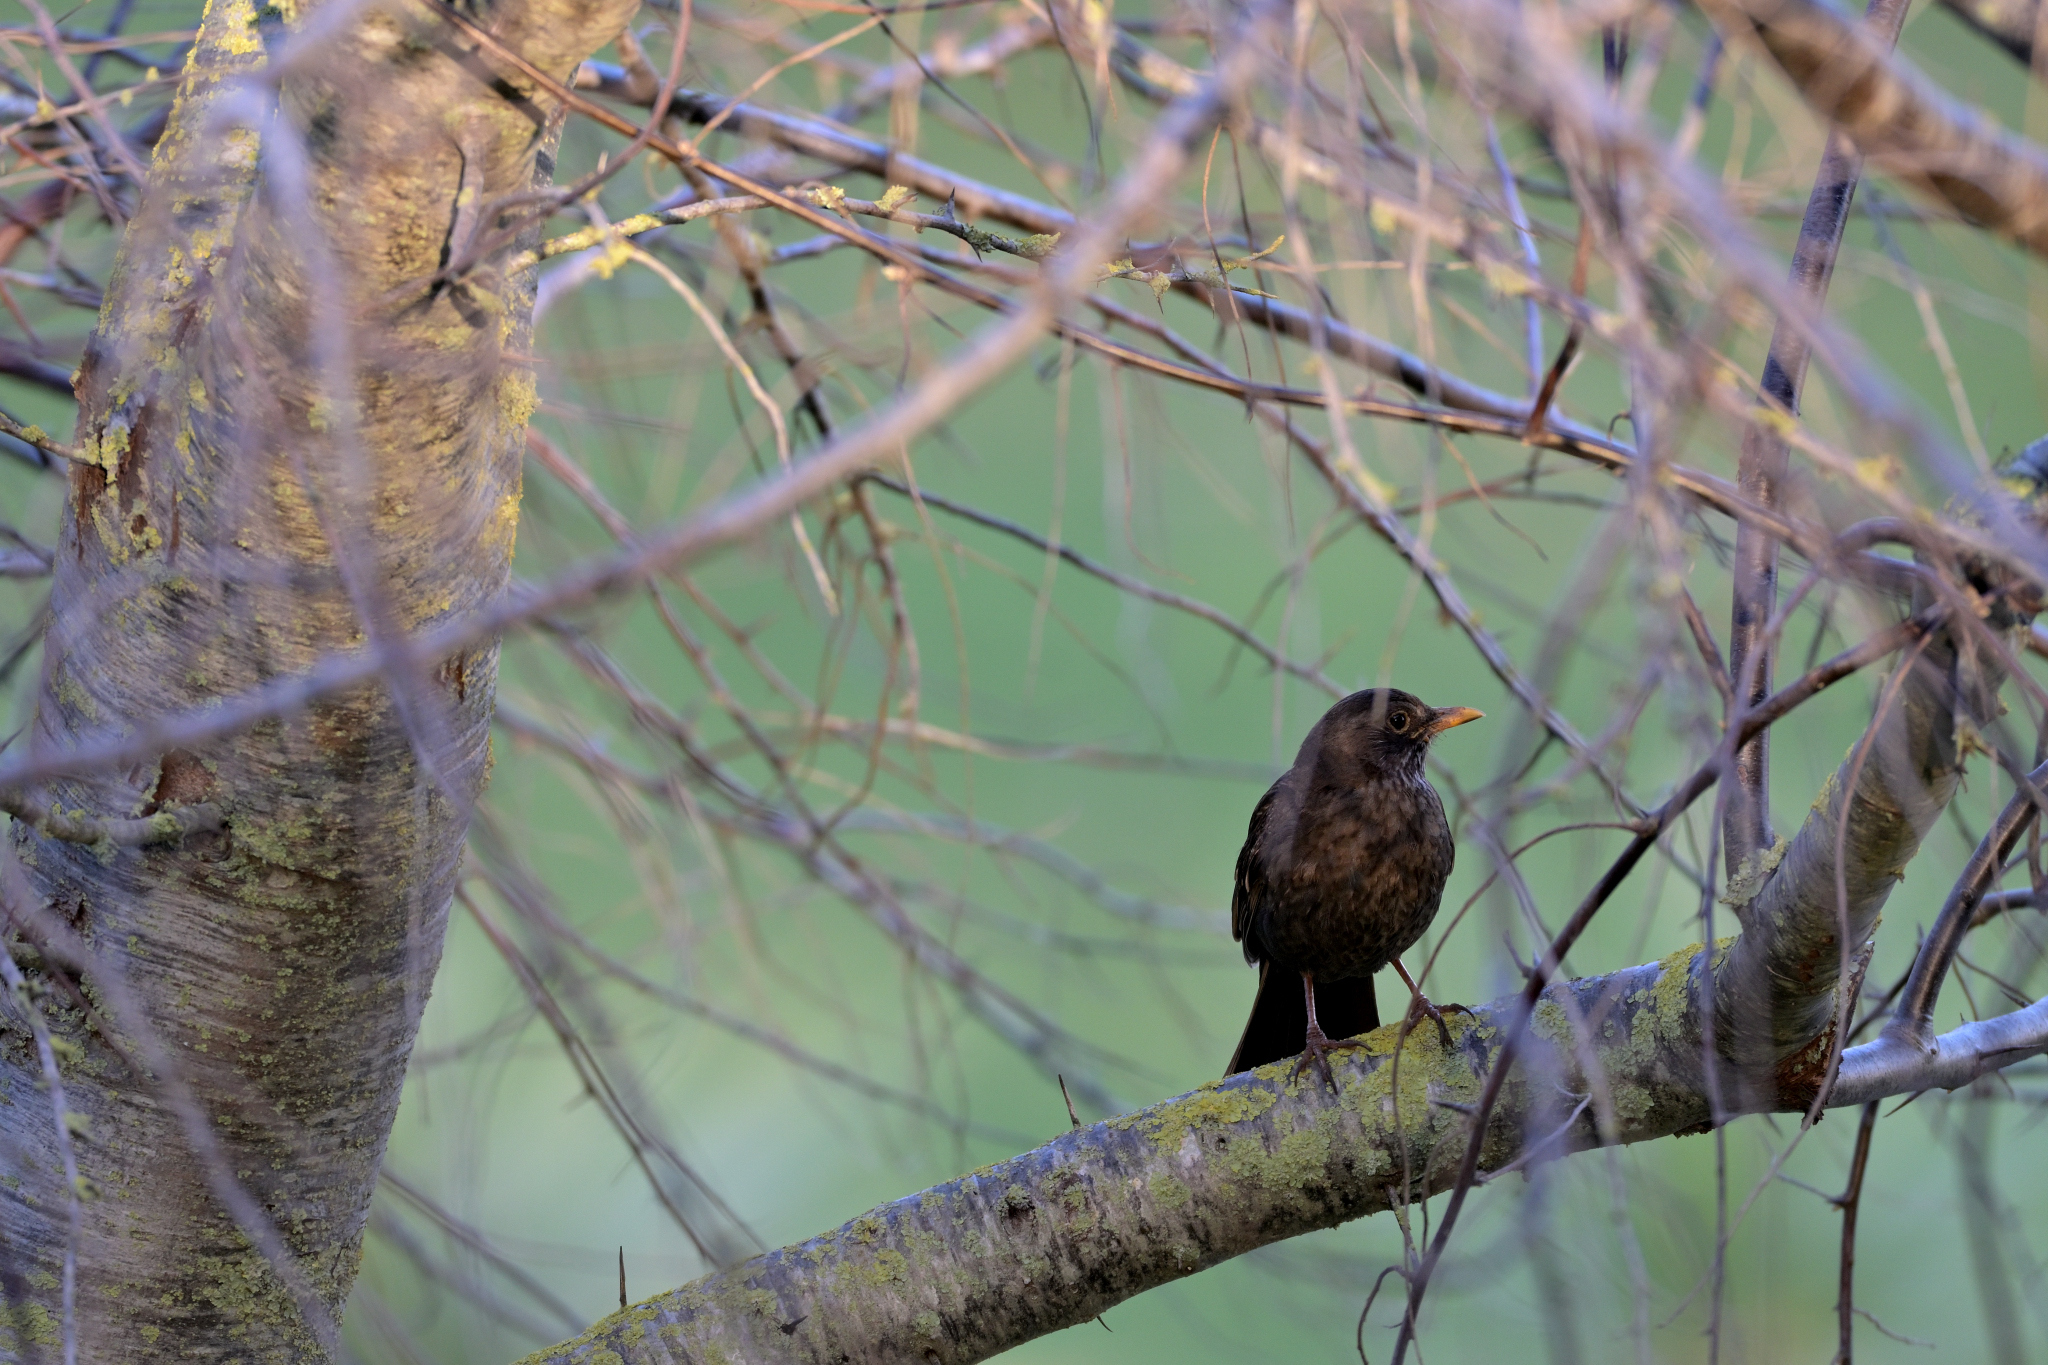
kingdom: Animalia
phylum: Chordata
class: Aves
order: Passeriformes
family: Turdidae
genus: Turdus
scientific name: Turdus merula
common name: Common blackbird
